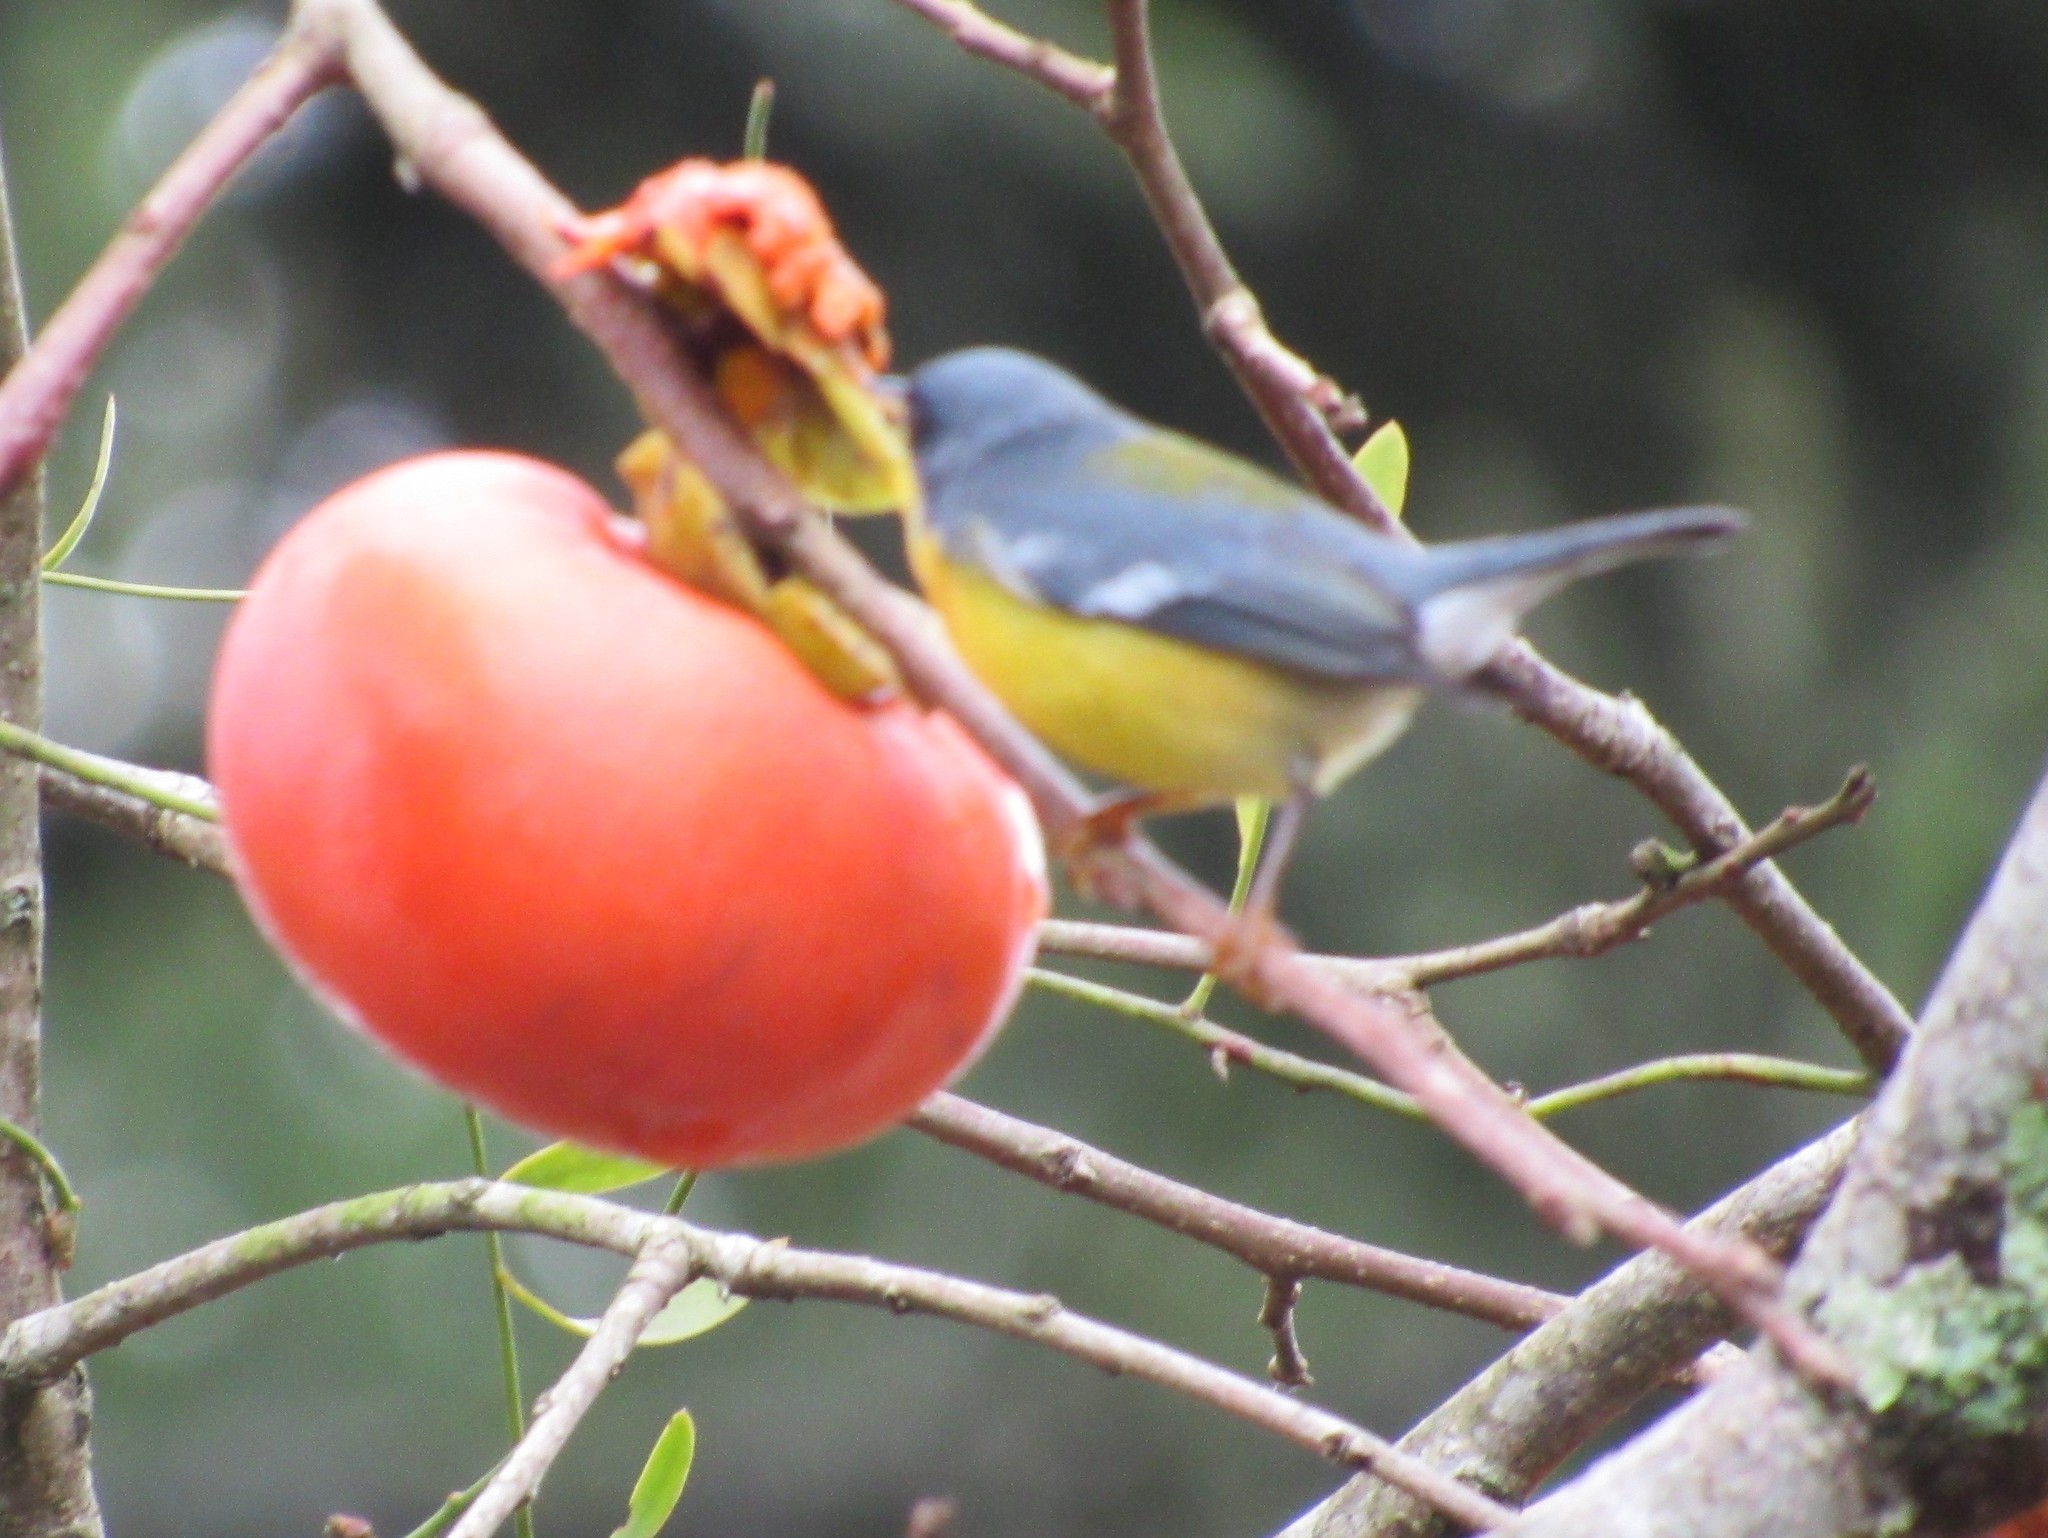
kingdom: Animalia
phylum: Chordata
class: Aves
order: Passeriformes
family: Parulidae
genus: Setophaga
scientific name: Setophaga pitiayumi
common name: Tropical parula
